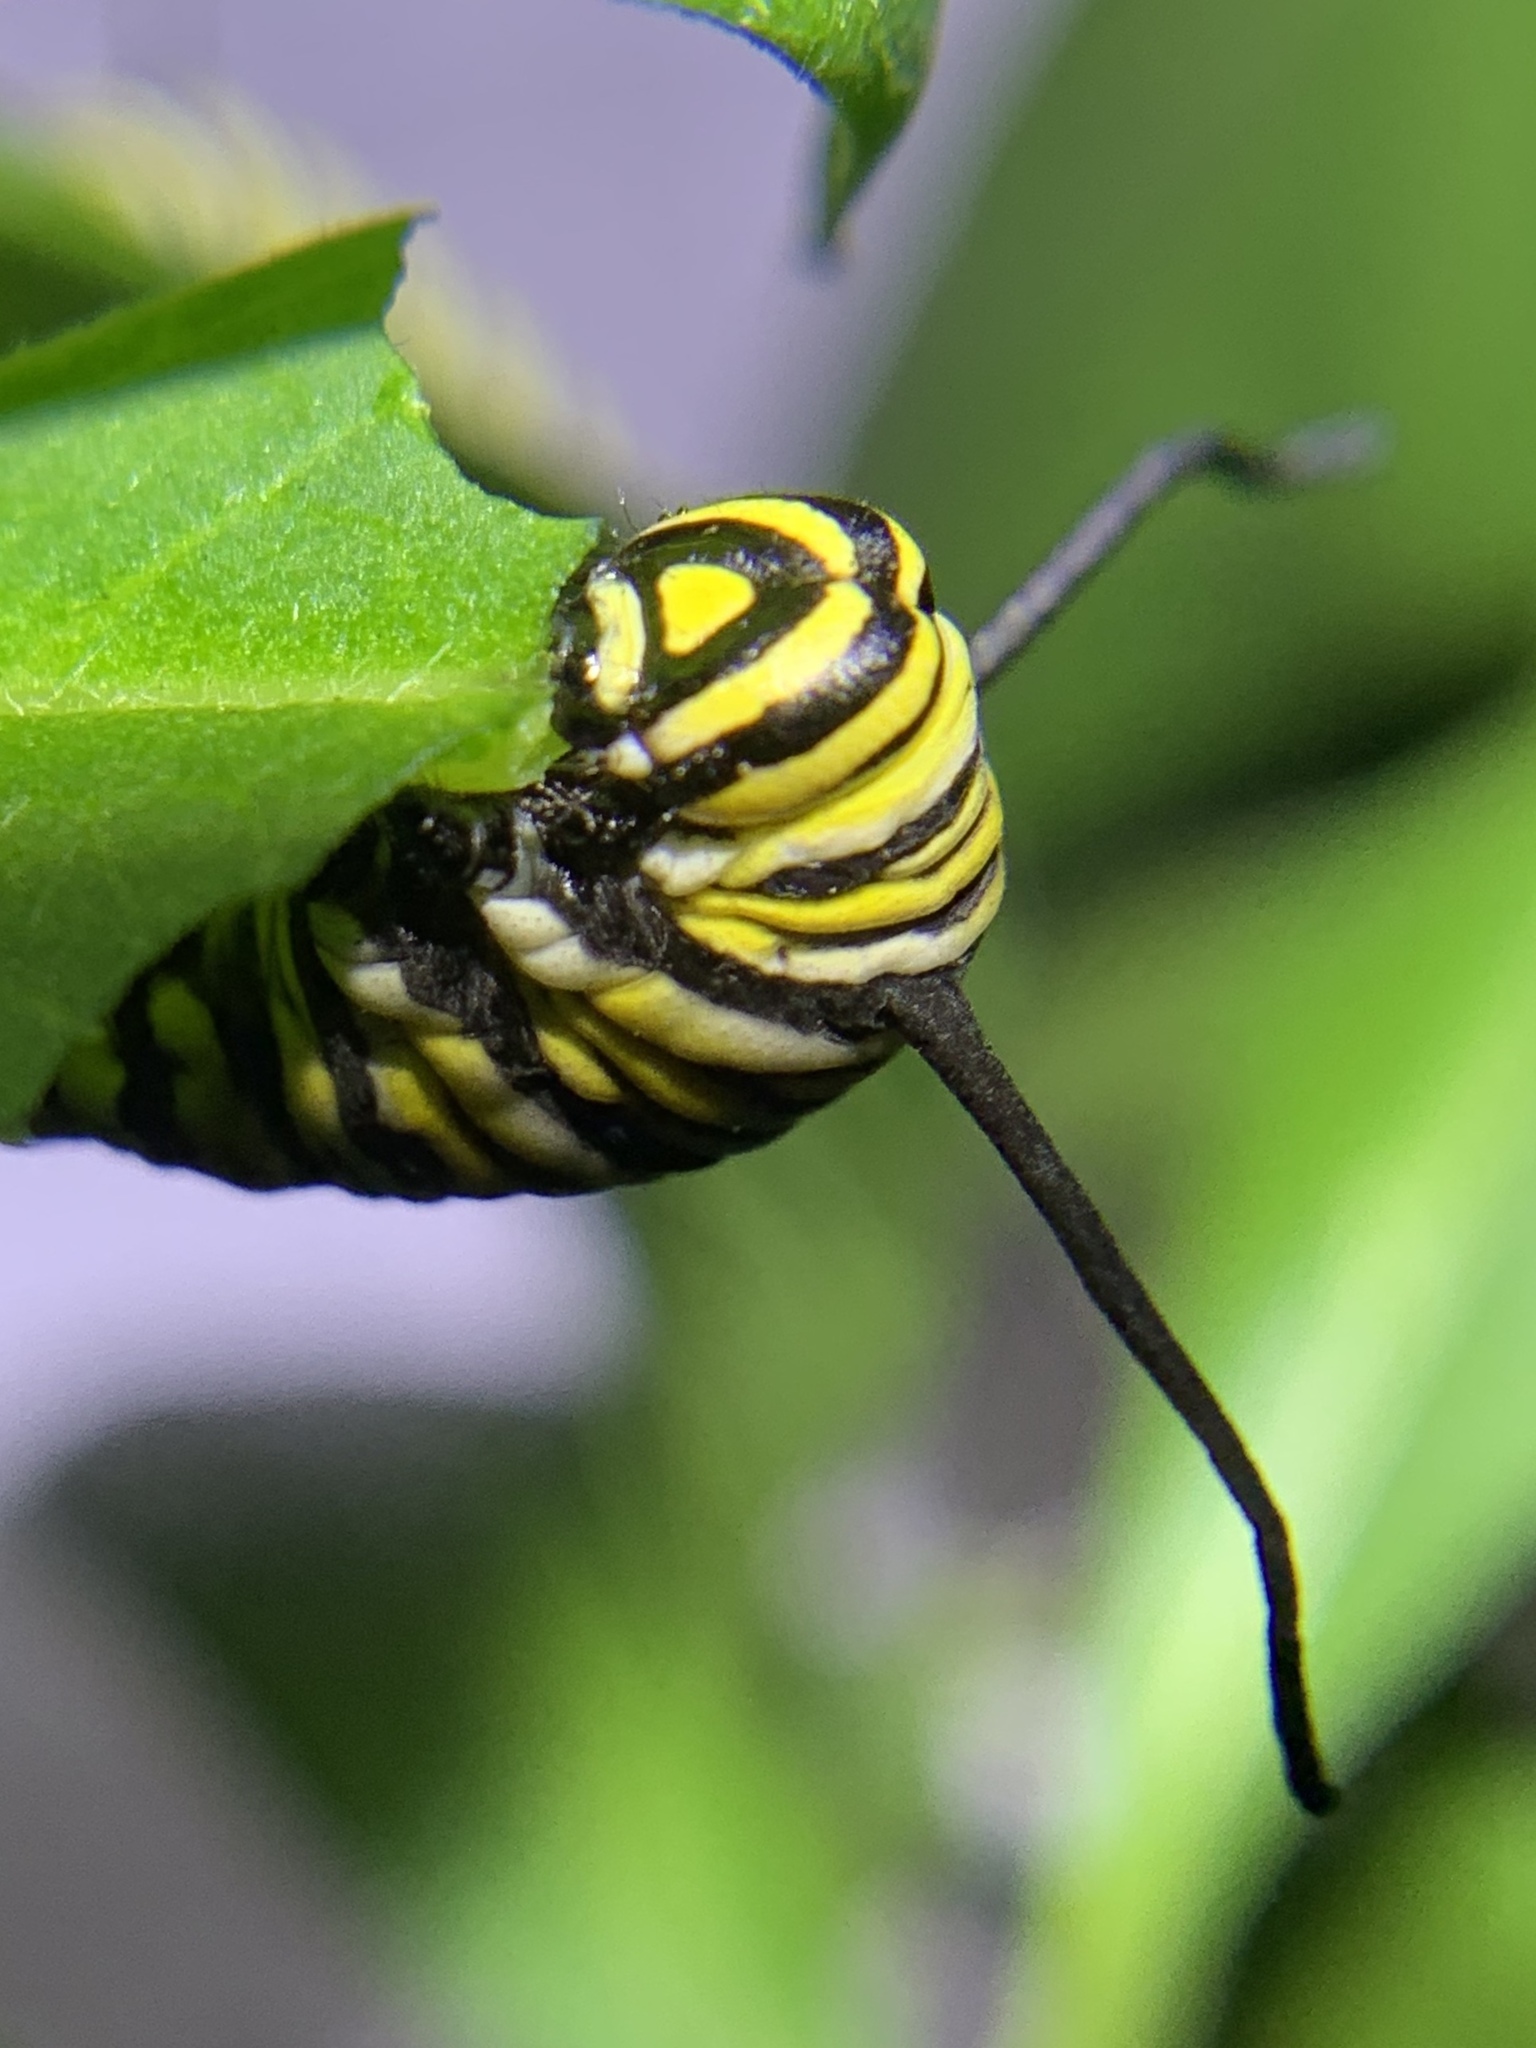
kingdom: Animalia
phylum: Arthropoda
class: Insecta
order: Lepidoptera
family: Nymphalidae
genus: Danaus
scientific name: Danaus plexippus
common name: Monarch
